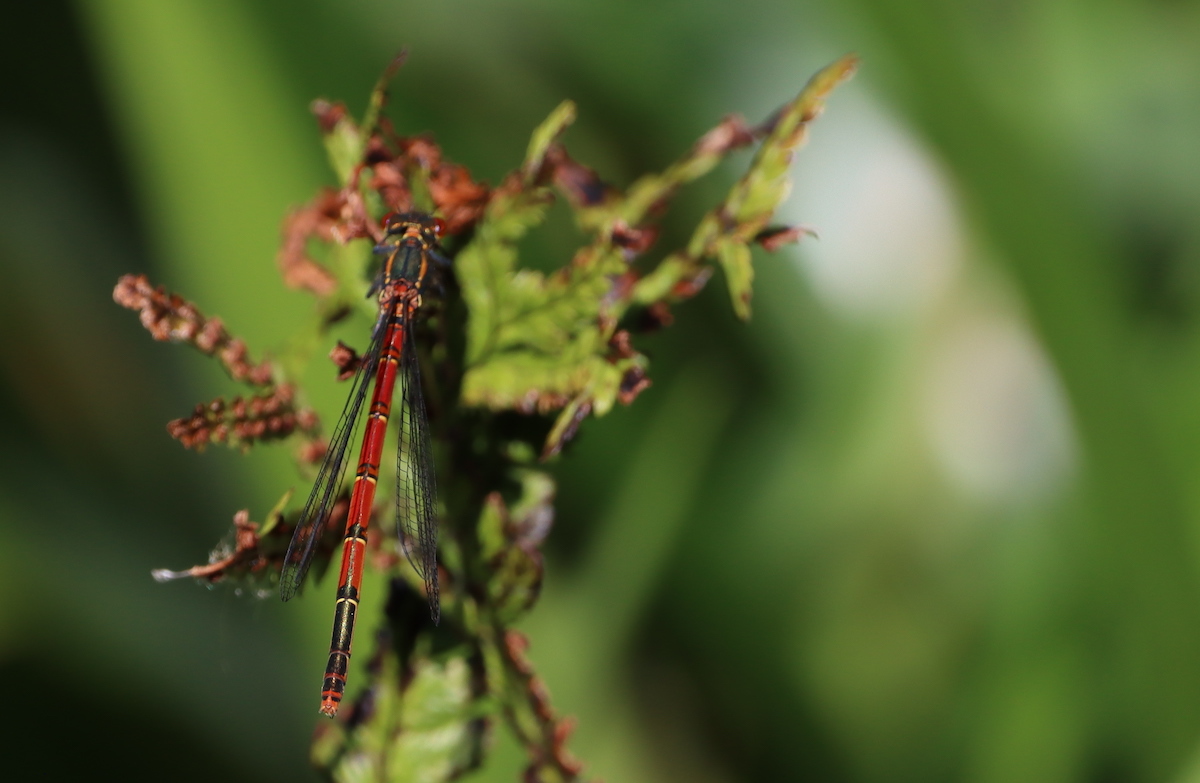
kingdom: Animalia
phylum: Arthropoda
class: Insecta
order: Odonata
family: Coenagrionidae
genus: Pyrrhosoma
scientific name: Pyrrhosoma nymphula
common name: Large red damsel
